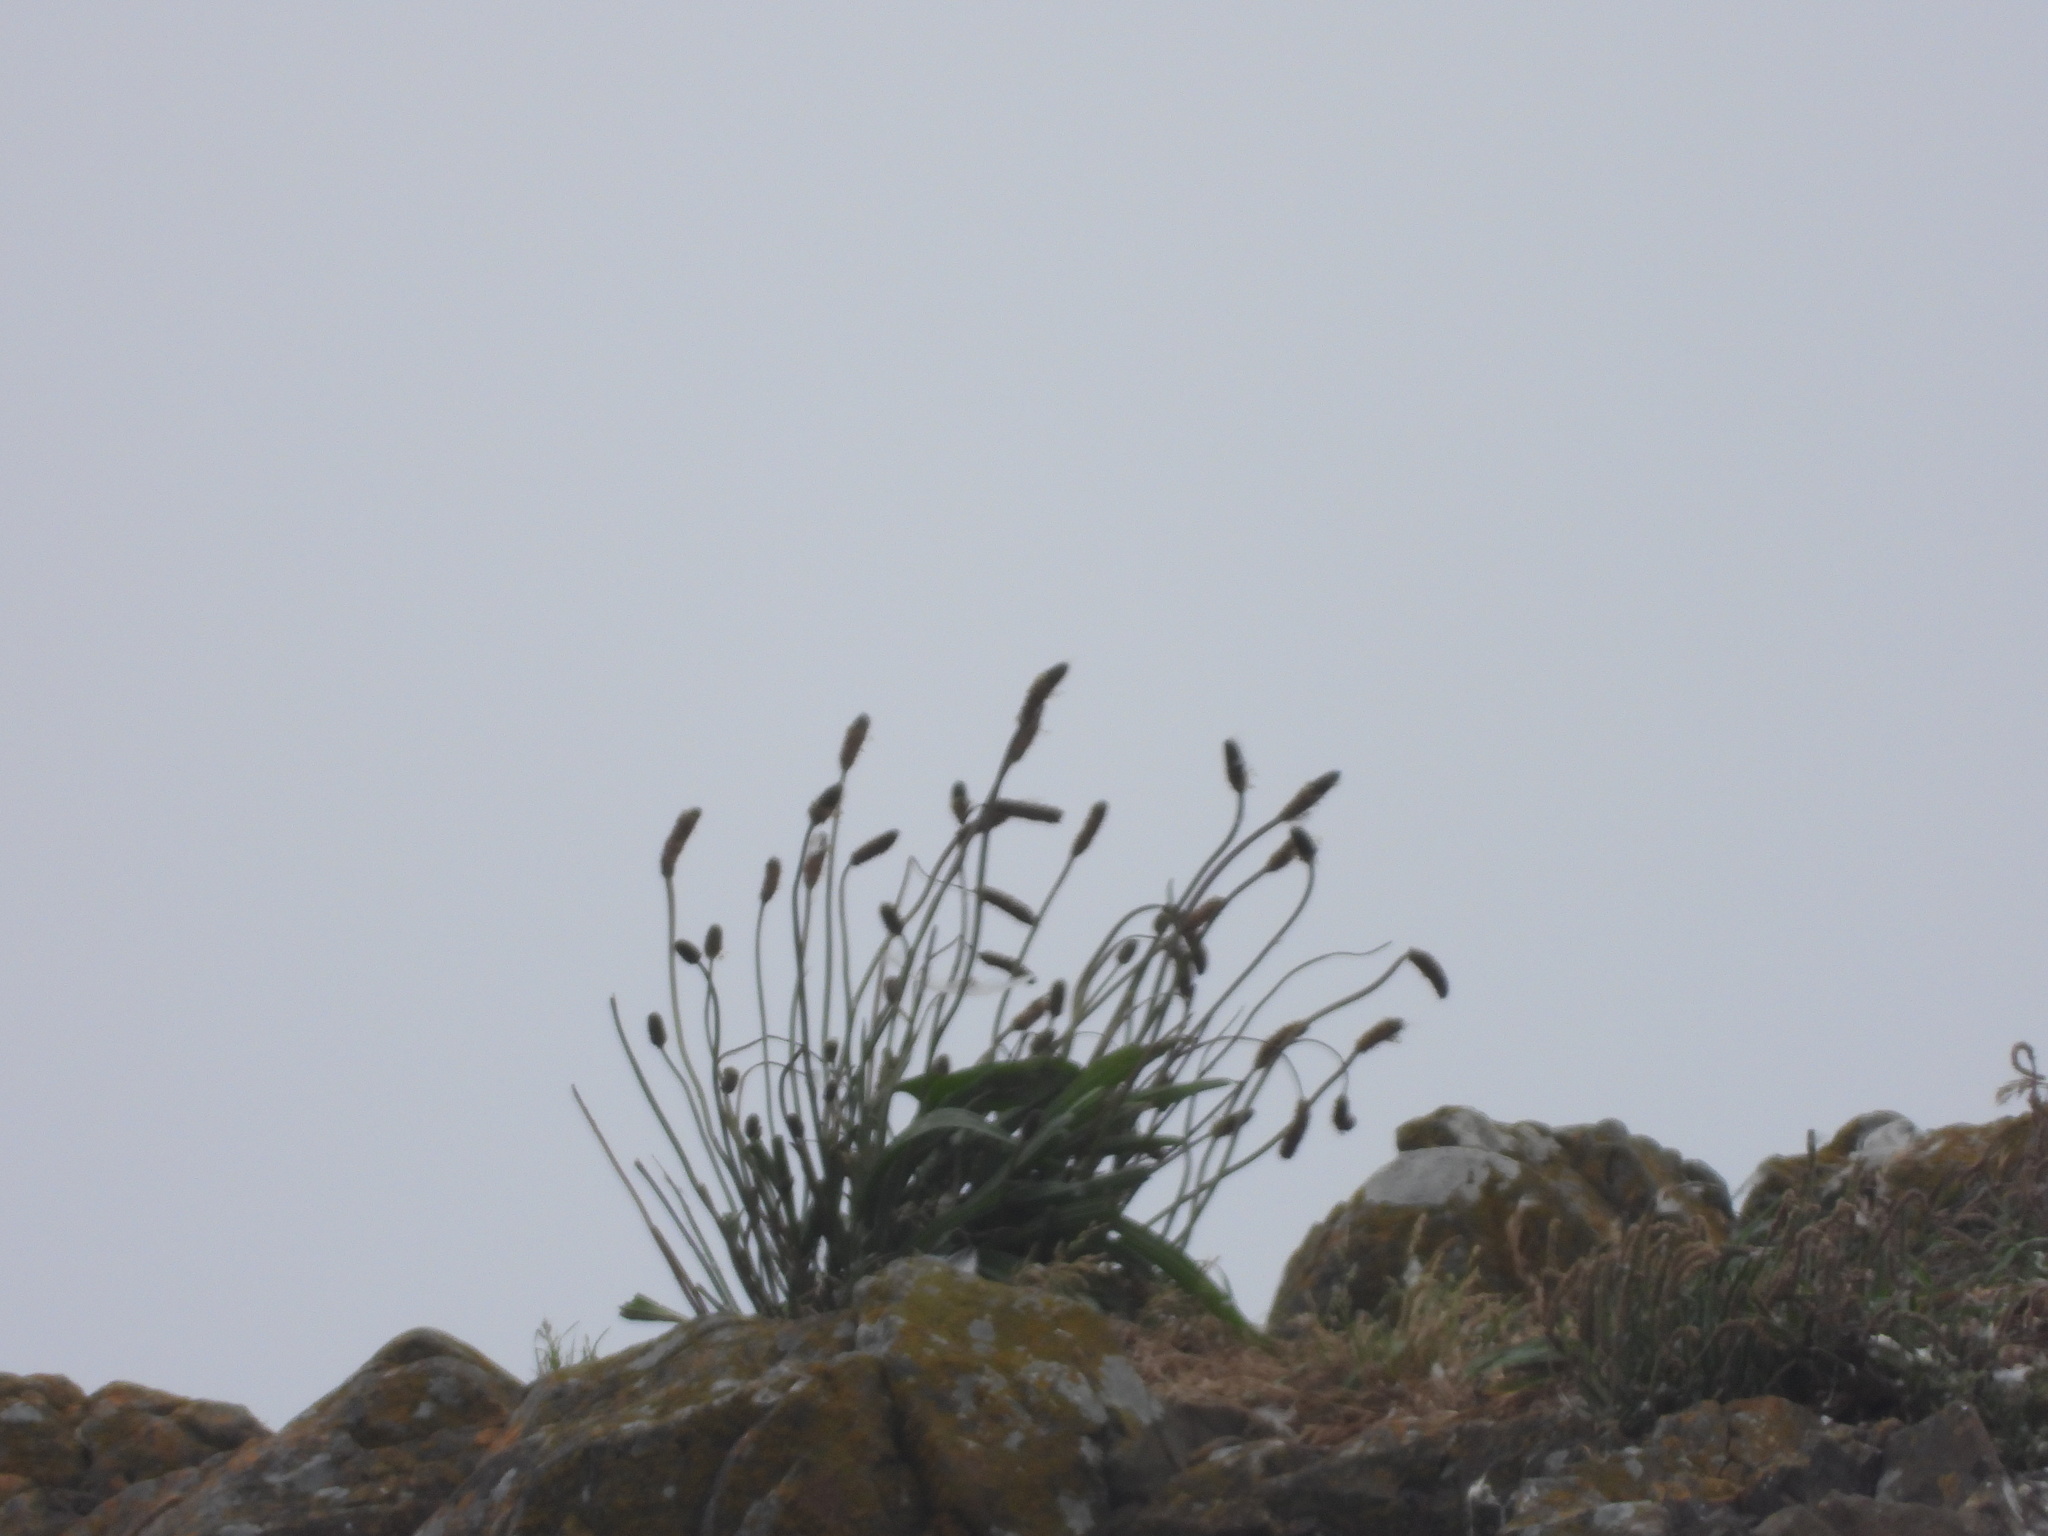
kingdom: Plantae
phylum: Tracheophyta
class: Magnoliopsida
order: Lamiales
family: Plantaginaceae
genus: Plantago
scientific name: Plantago lanceolata
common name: Ribwort plantain
